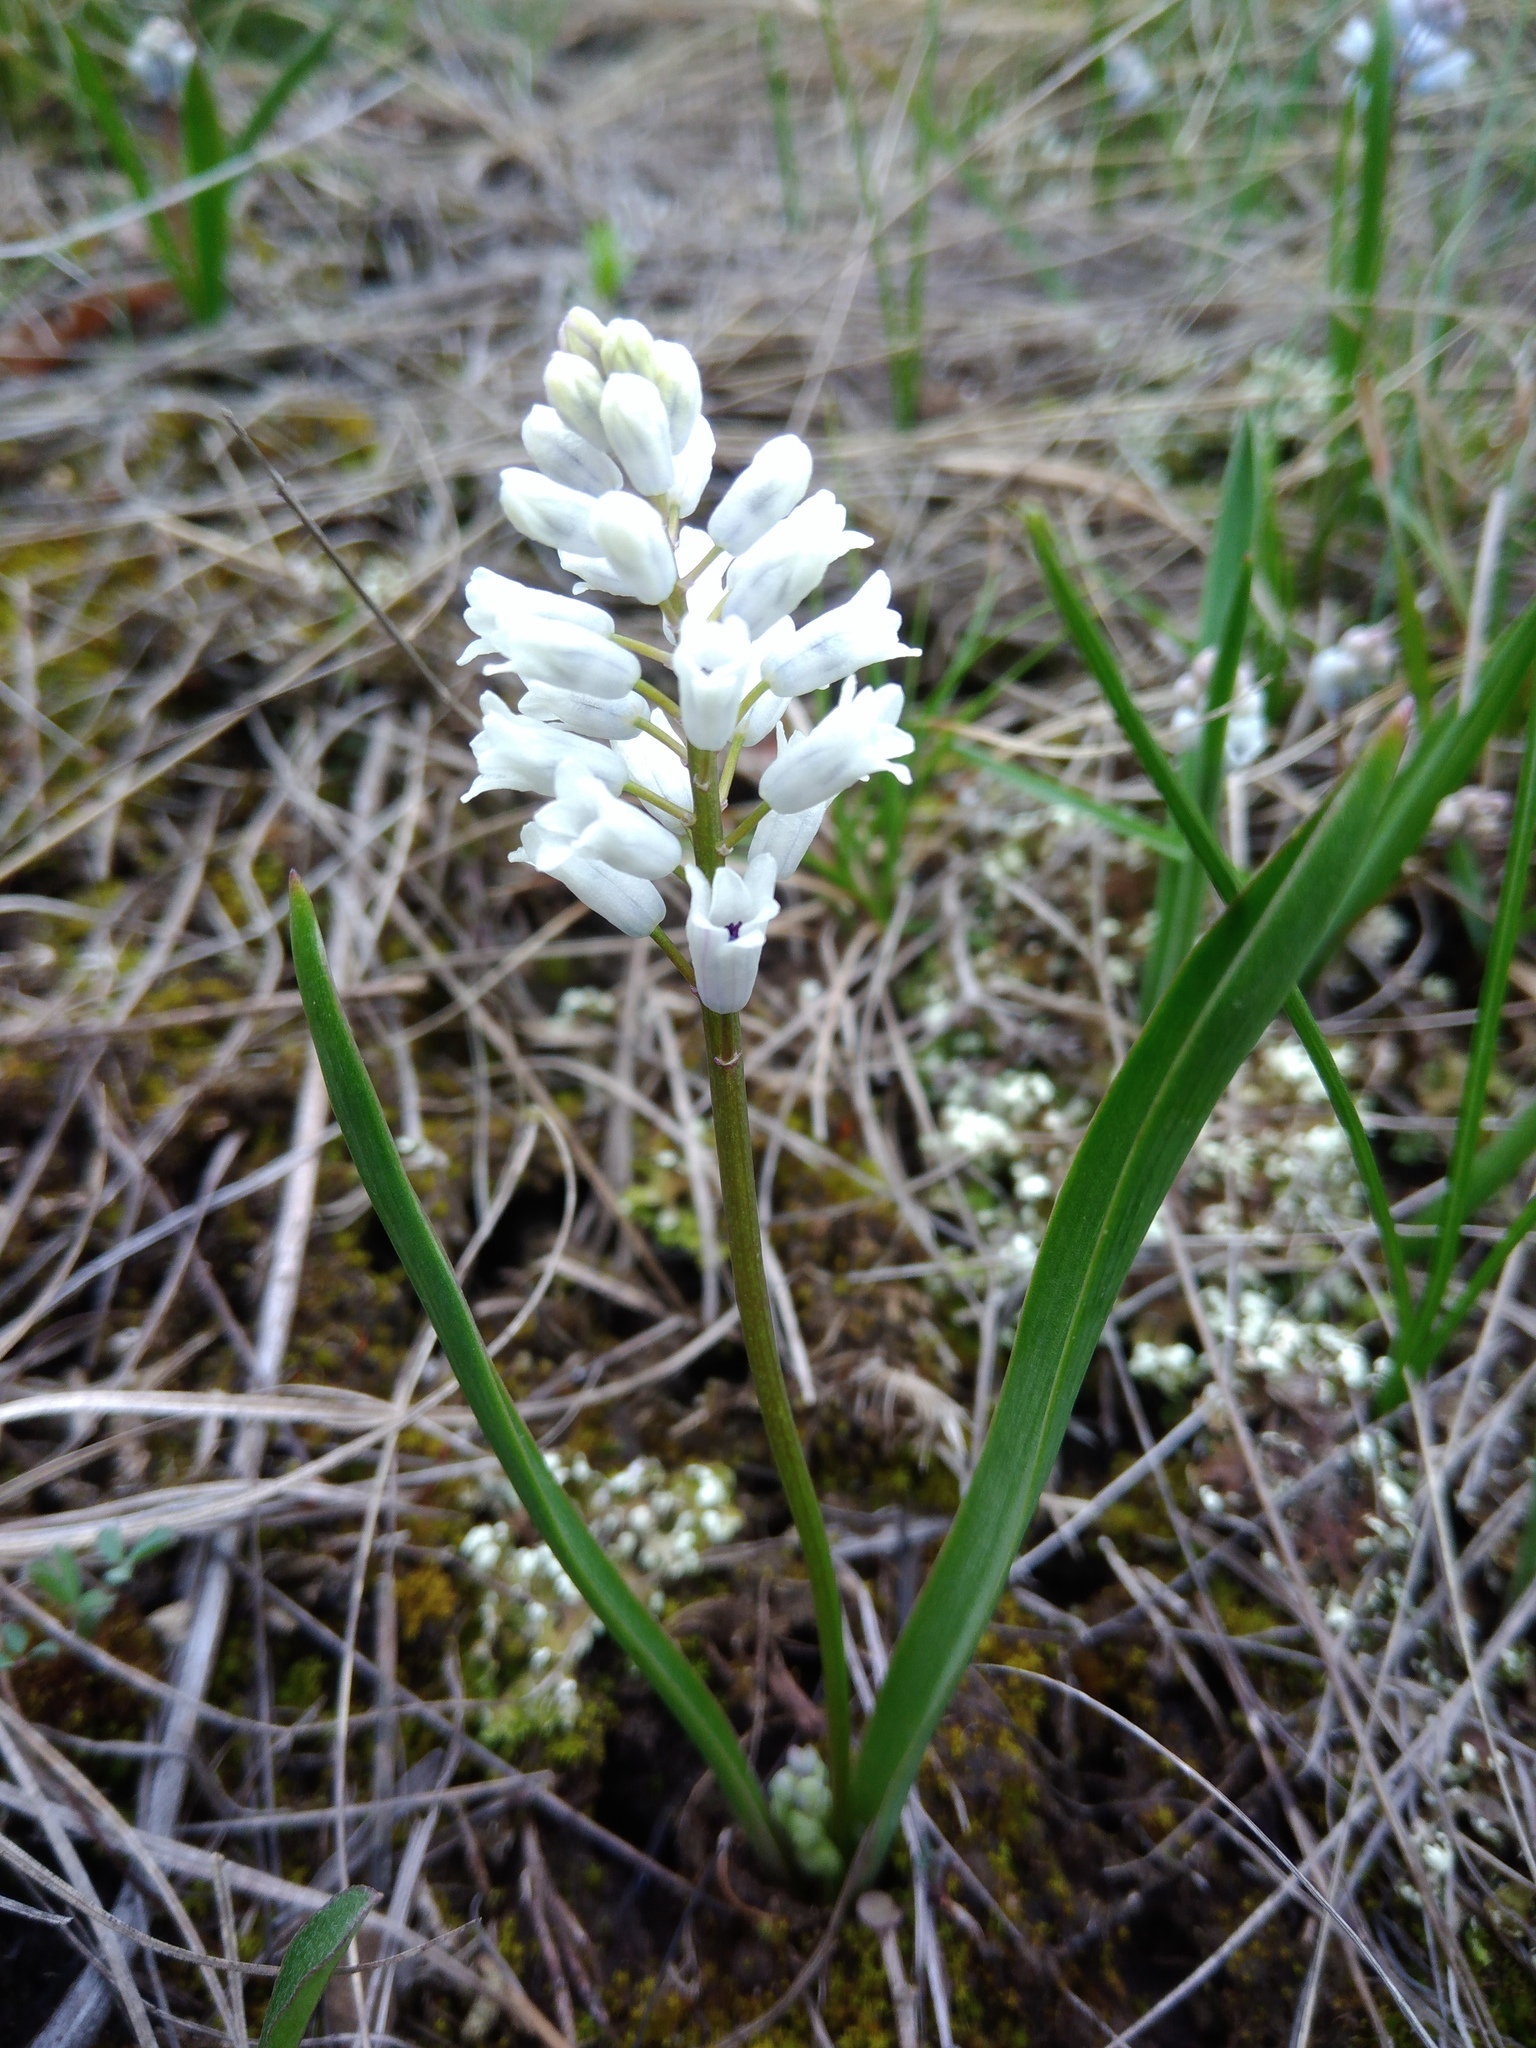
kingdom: Plantae
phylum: Tracheophyta
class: Liliopsida
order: Asparagales
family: Asparagaceae
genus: Hyacinthella
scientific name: Hyacinthella leucophaea
